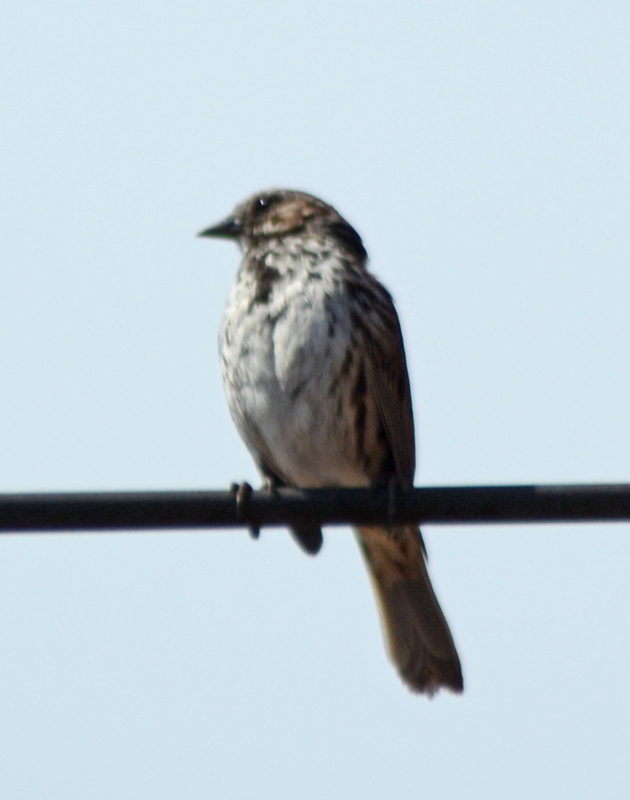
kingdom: Animalia
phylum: Chordata
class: Aves
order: Passeriformes
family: Passerellidae
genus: Melospiza
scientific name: Melospiza melodia
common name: Song sparrow
